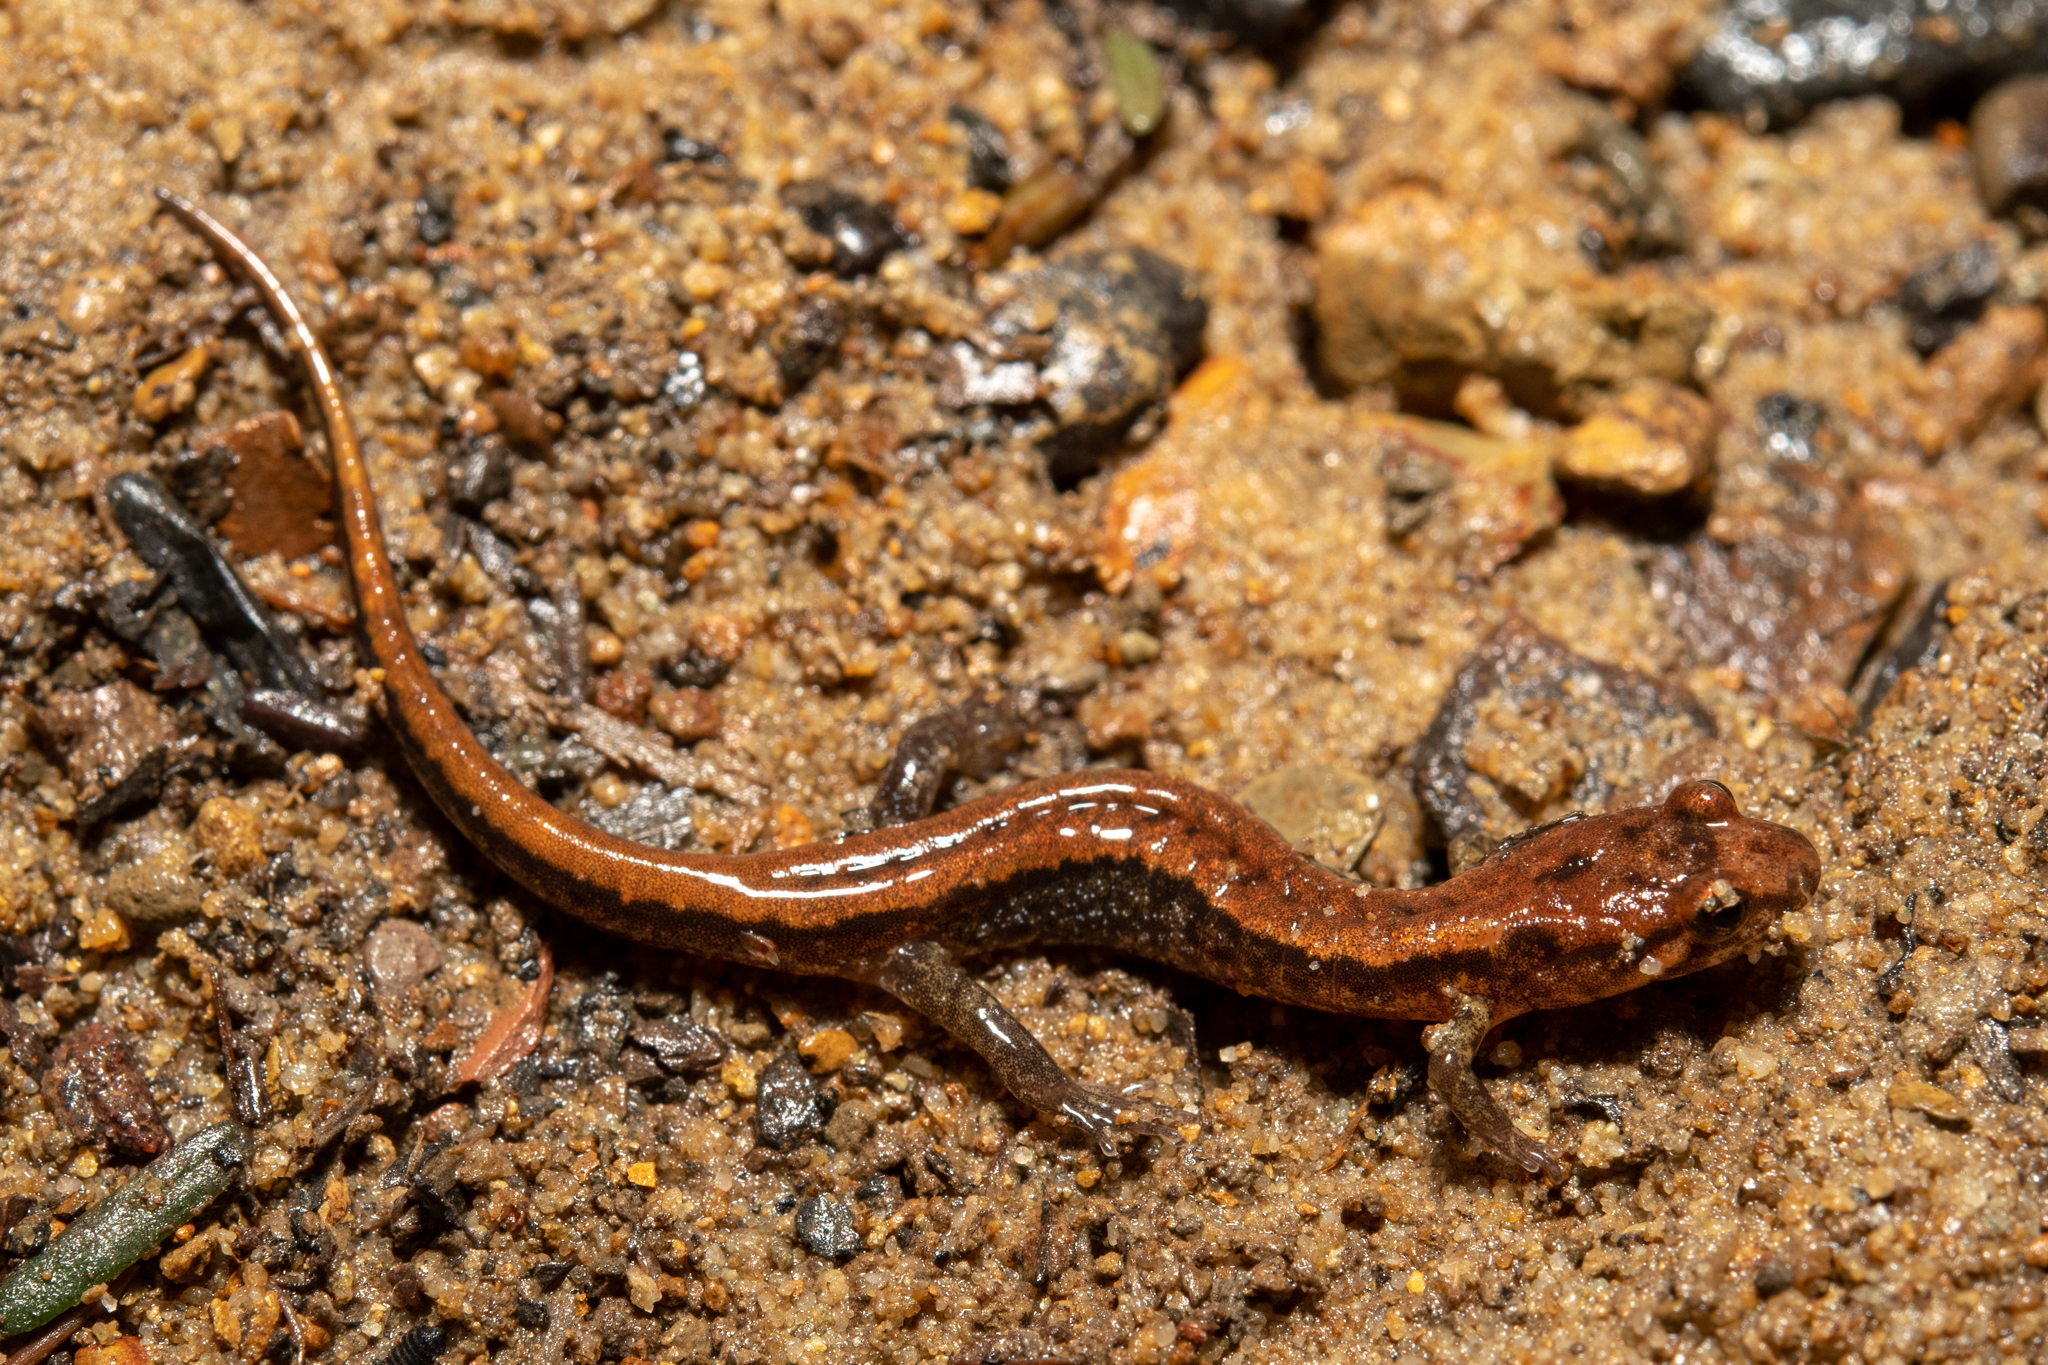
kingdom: Animalia
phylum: Chordata
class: Amphibia
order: Caudata
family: Plethodontidae
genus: Desmognathus
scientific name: Desmognathus ochrophaeus
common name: Allegheny mountain dusky salamander
